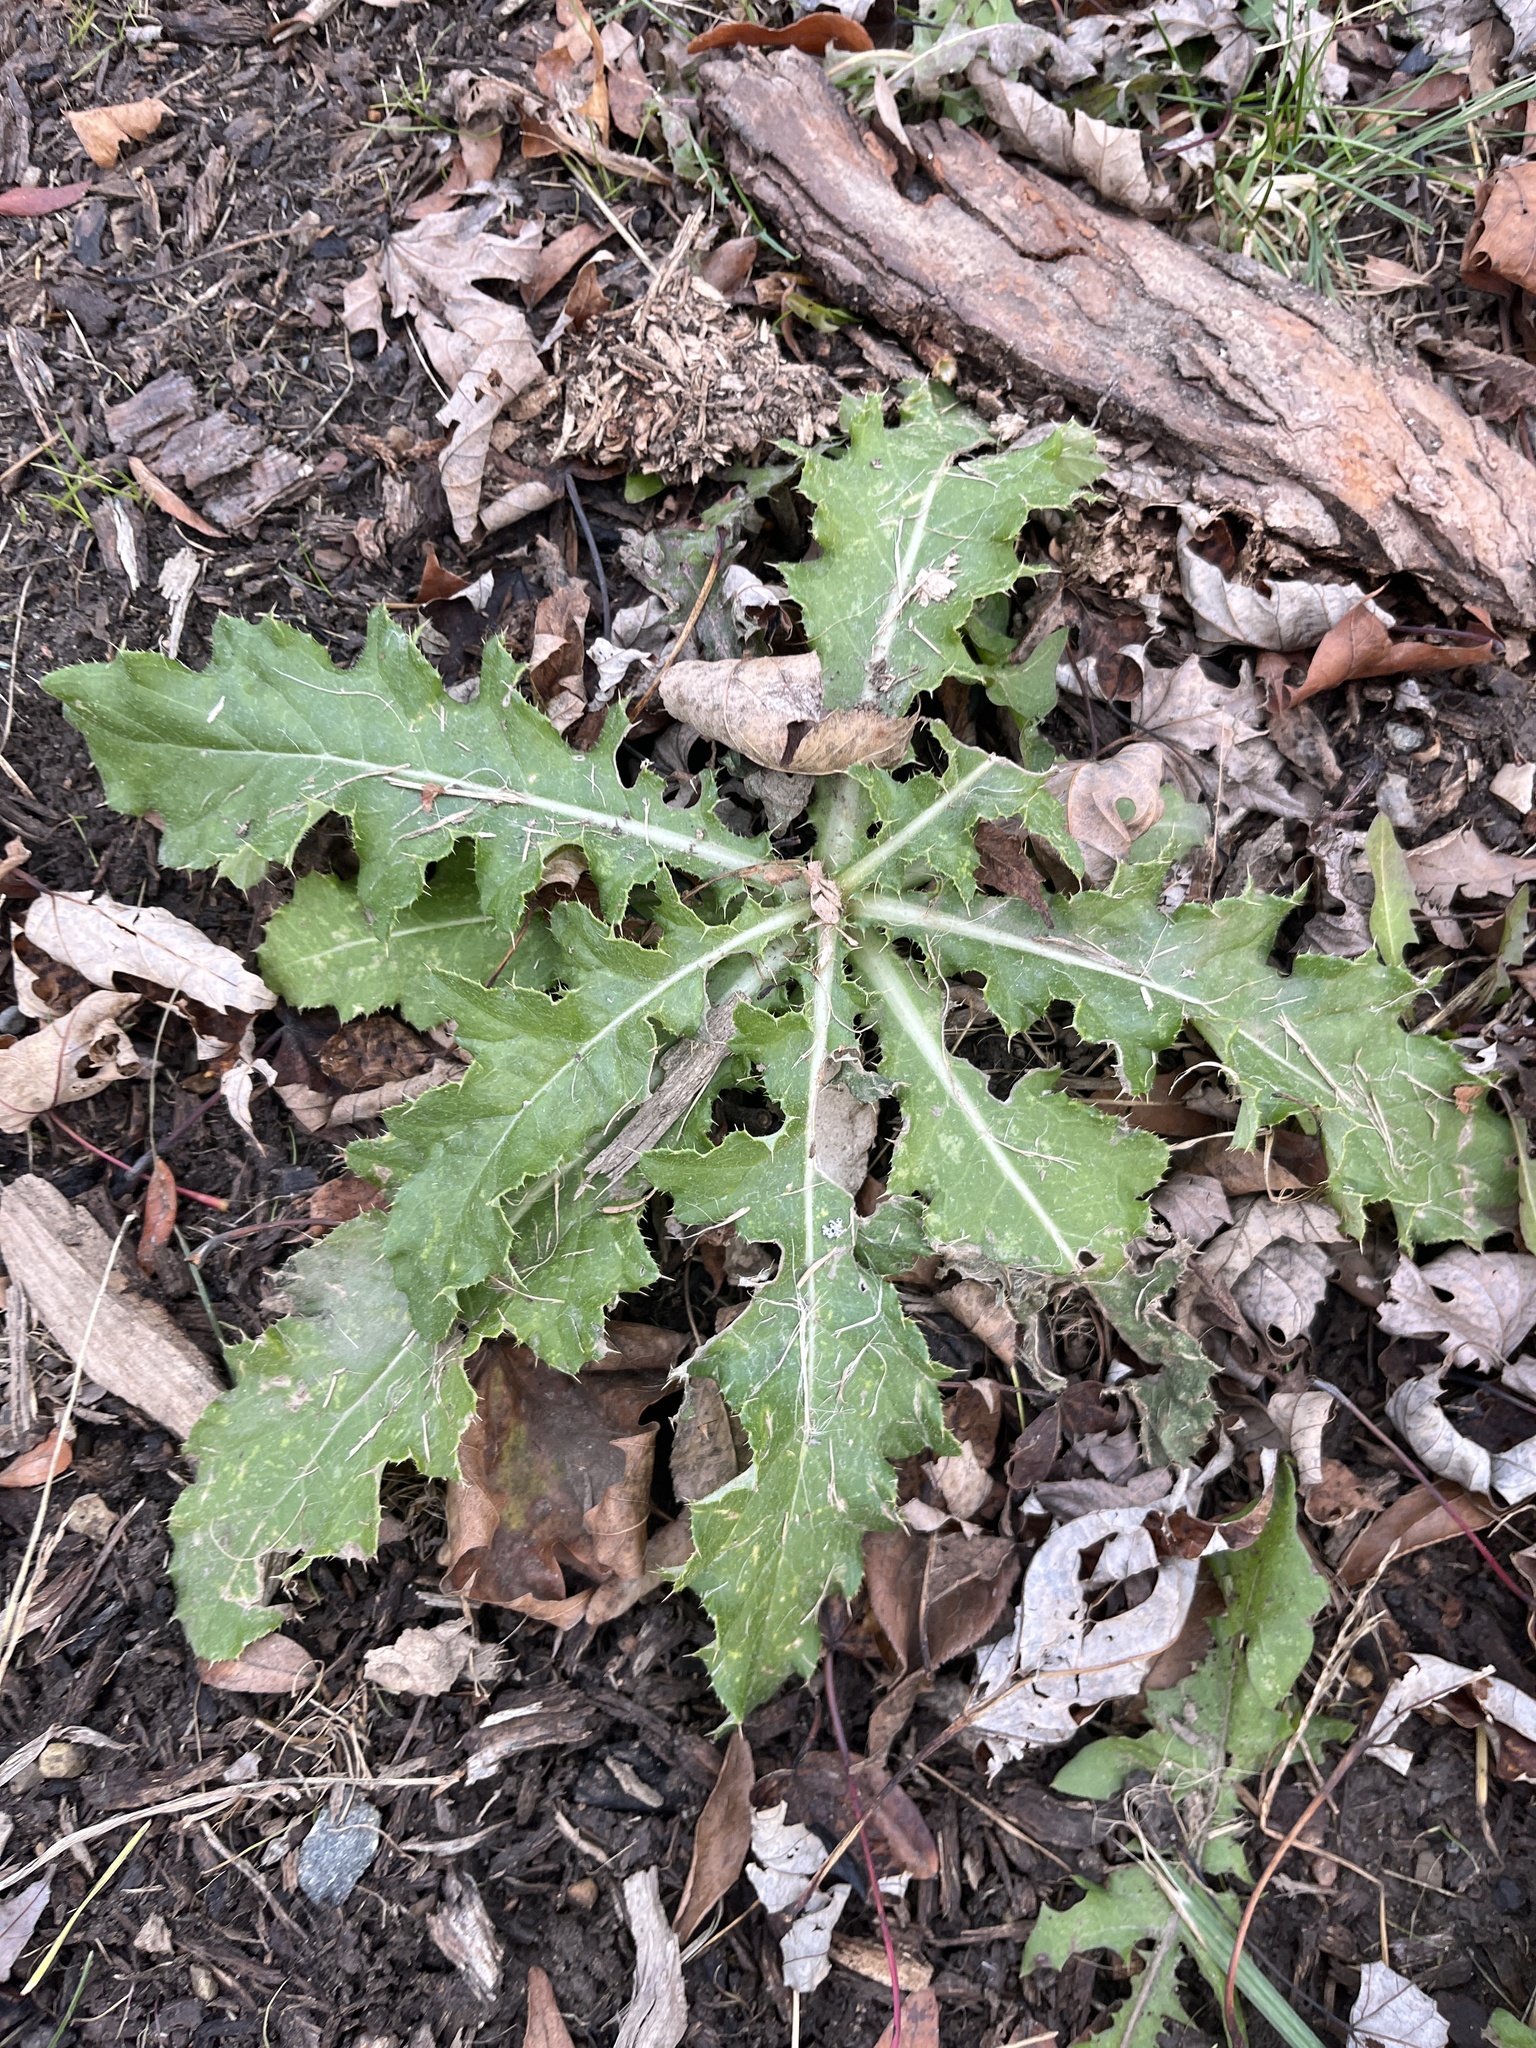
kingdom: Plantae
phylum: Tracheophyta
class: Magnoliopsida
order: Asterales
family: Asteraceae
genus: Cirsium
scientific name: Cirsium arvense
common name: Creeping thistle
